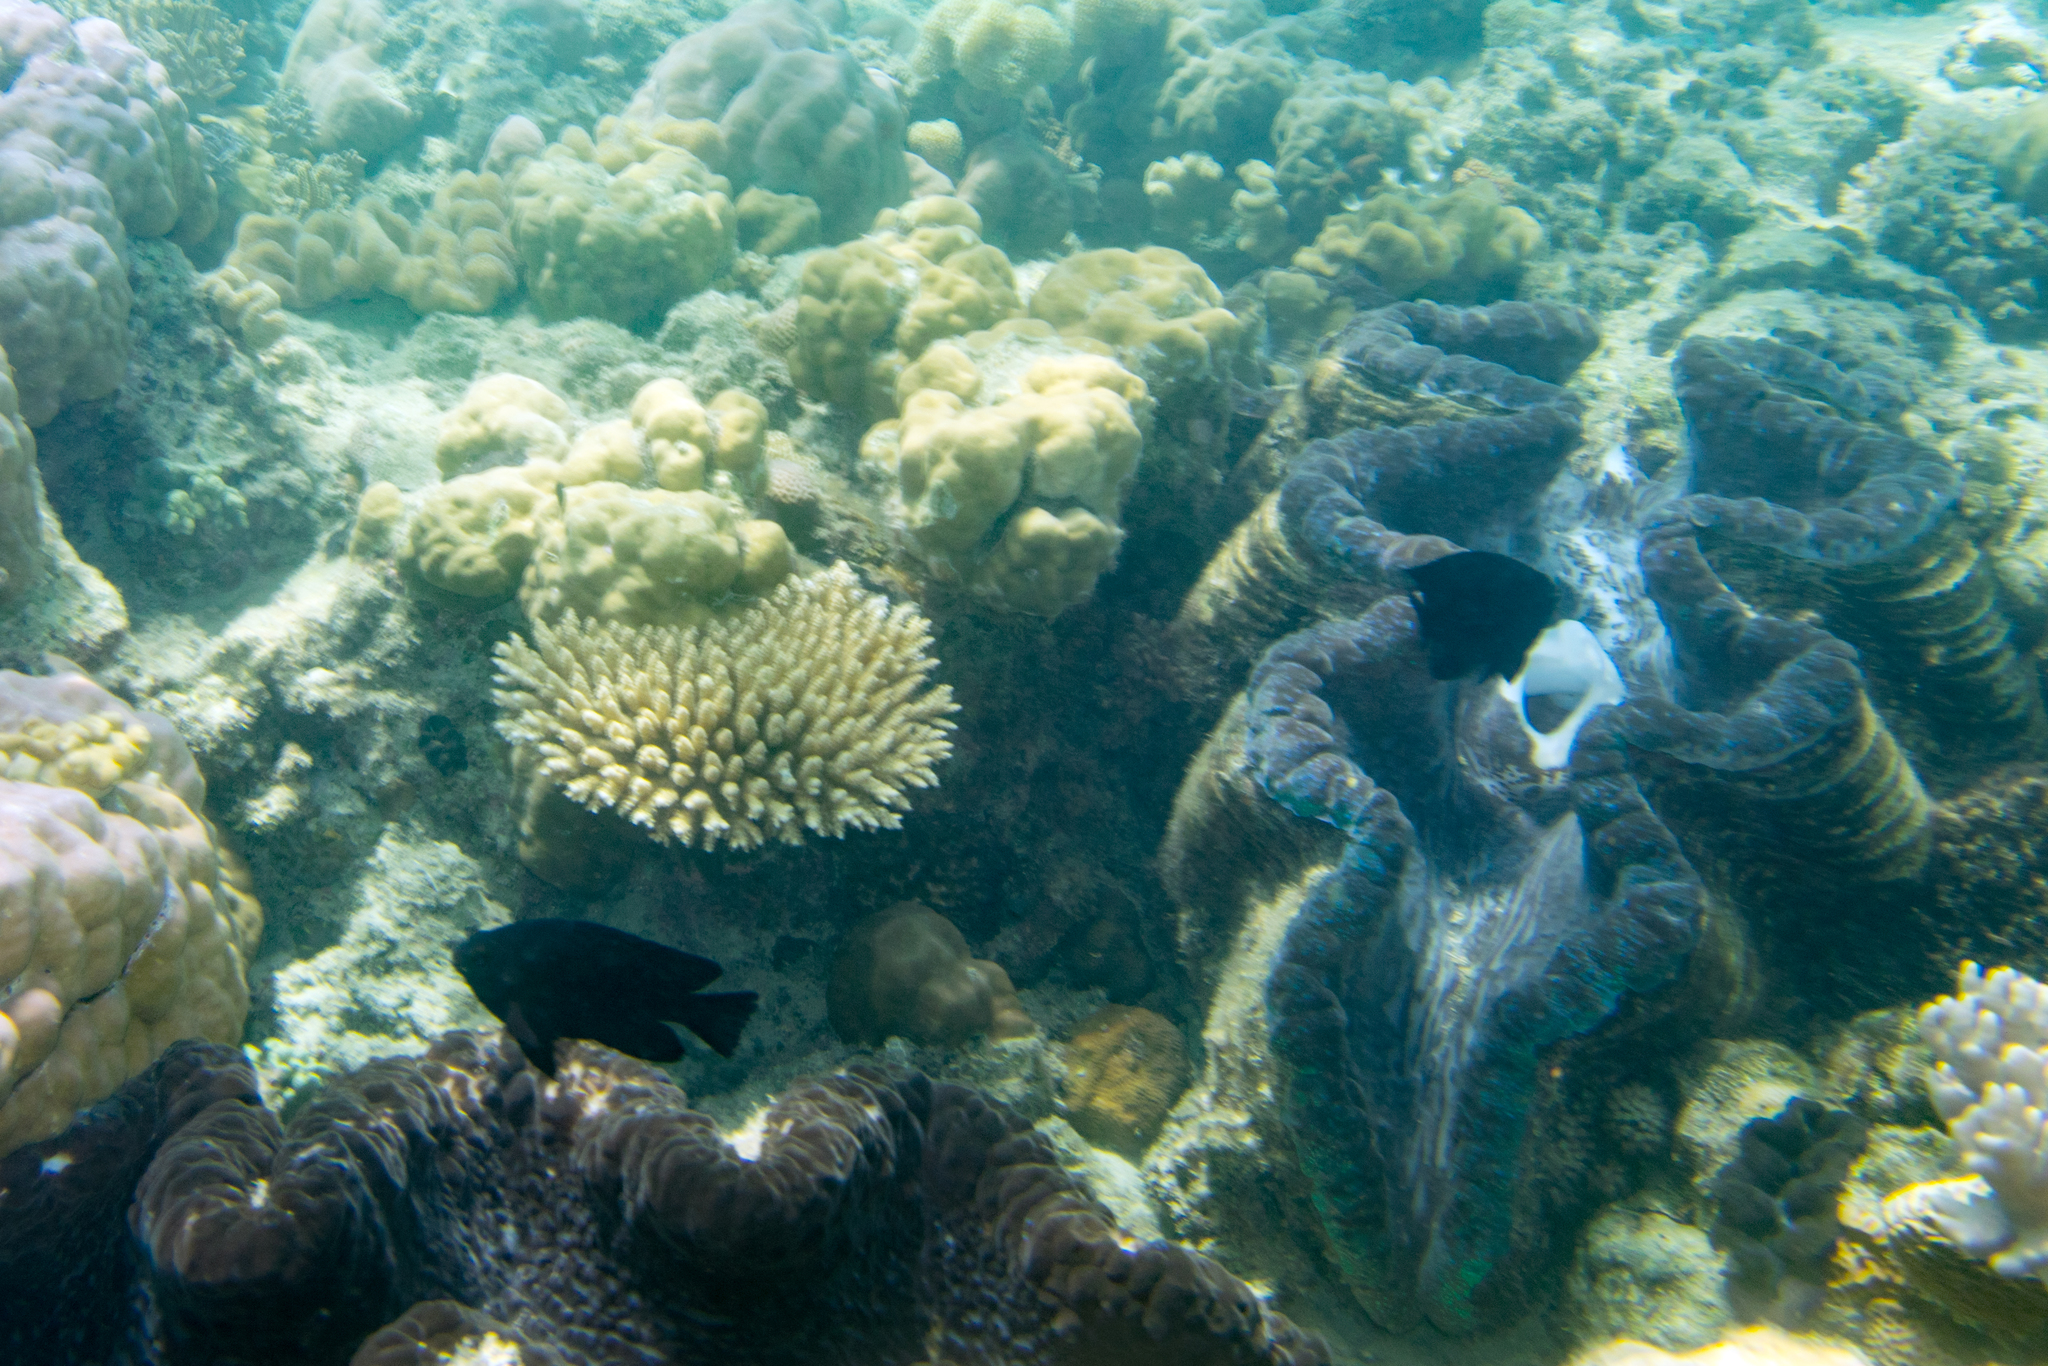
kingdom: Animalia
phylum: Mollusca
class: Bivalvia
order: Cardiida
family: Cardiidae
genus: Tridacna
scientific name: Tridacna gigas
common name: Giant clam
